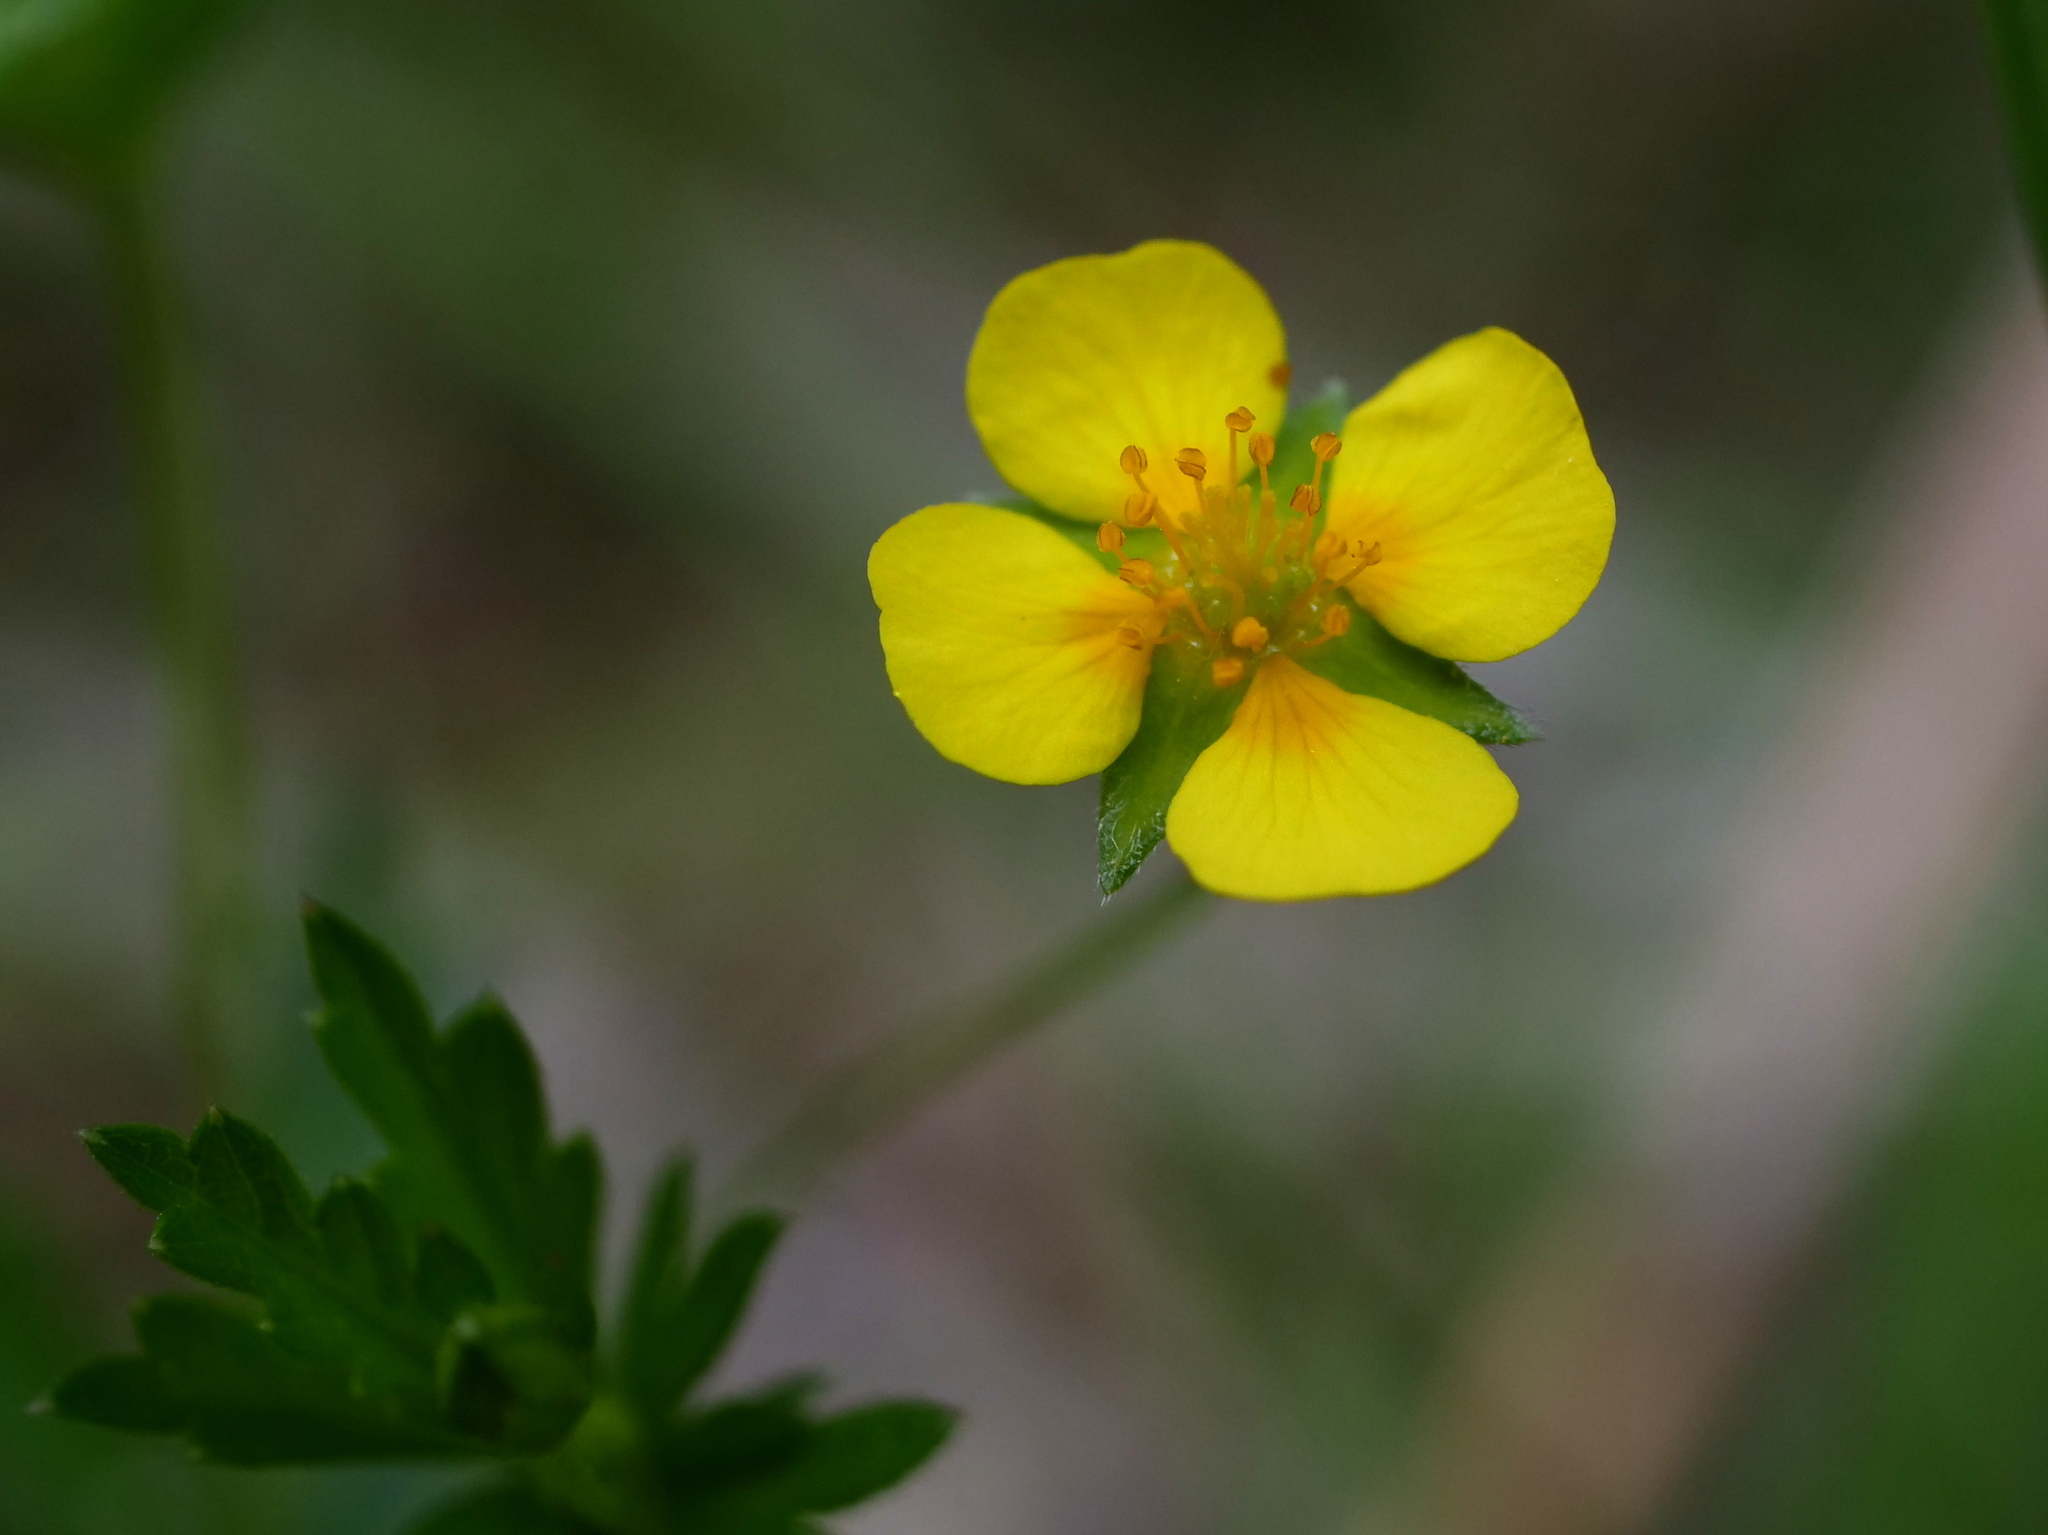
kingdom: Plantae
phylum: Tracheophyta
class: Magnoliopsida
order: Rosales
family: Rosaceae
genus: Potentilla
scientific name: Potentilla erecta
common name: Tormentil
